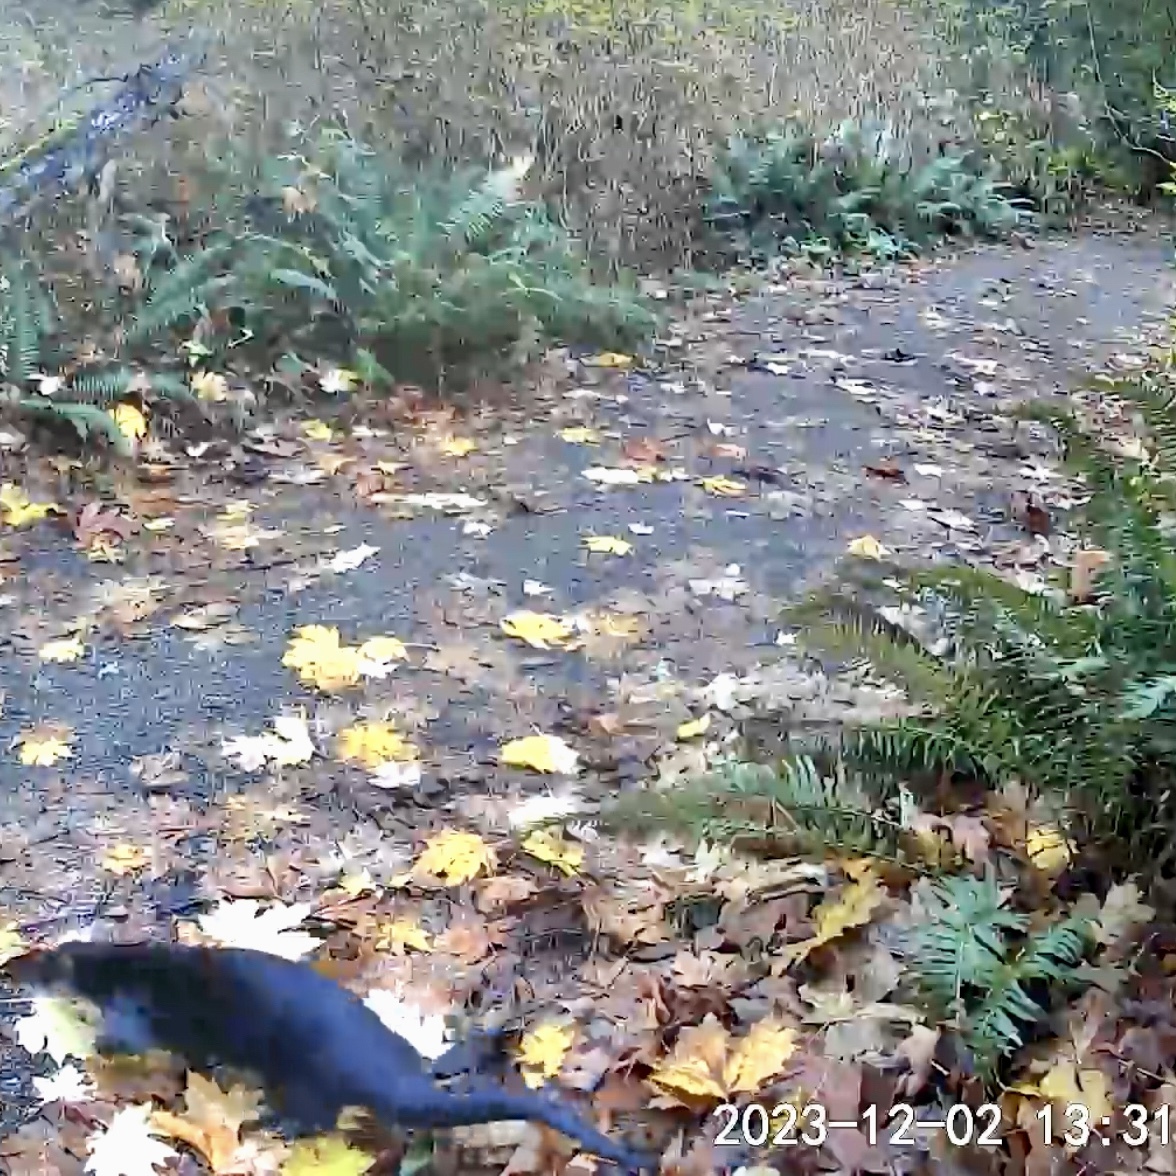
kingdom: Animalia
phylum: Chordata
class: Mammalia
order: Carnivora
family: Mustelidae
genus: Lontra
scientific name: Lontra canadensis
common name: North american river otter
